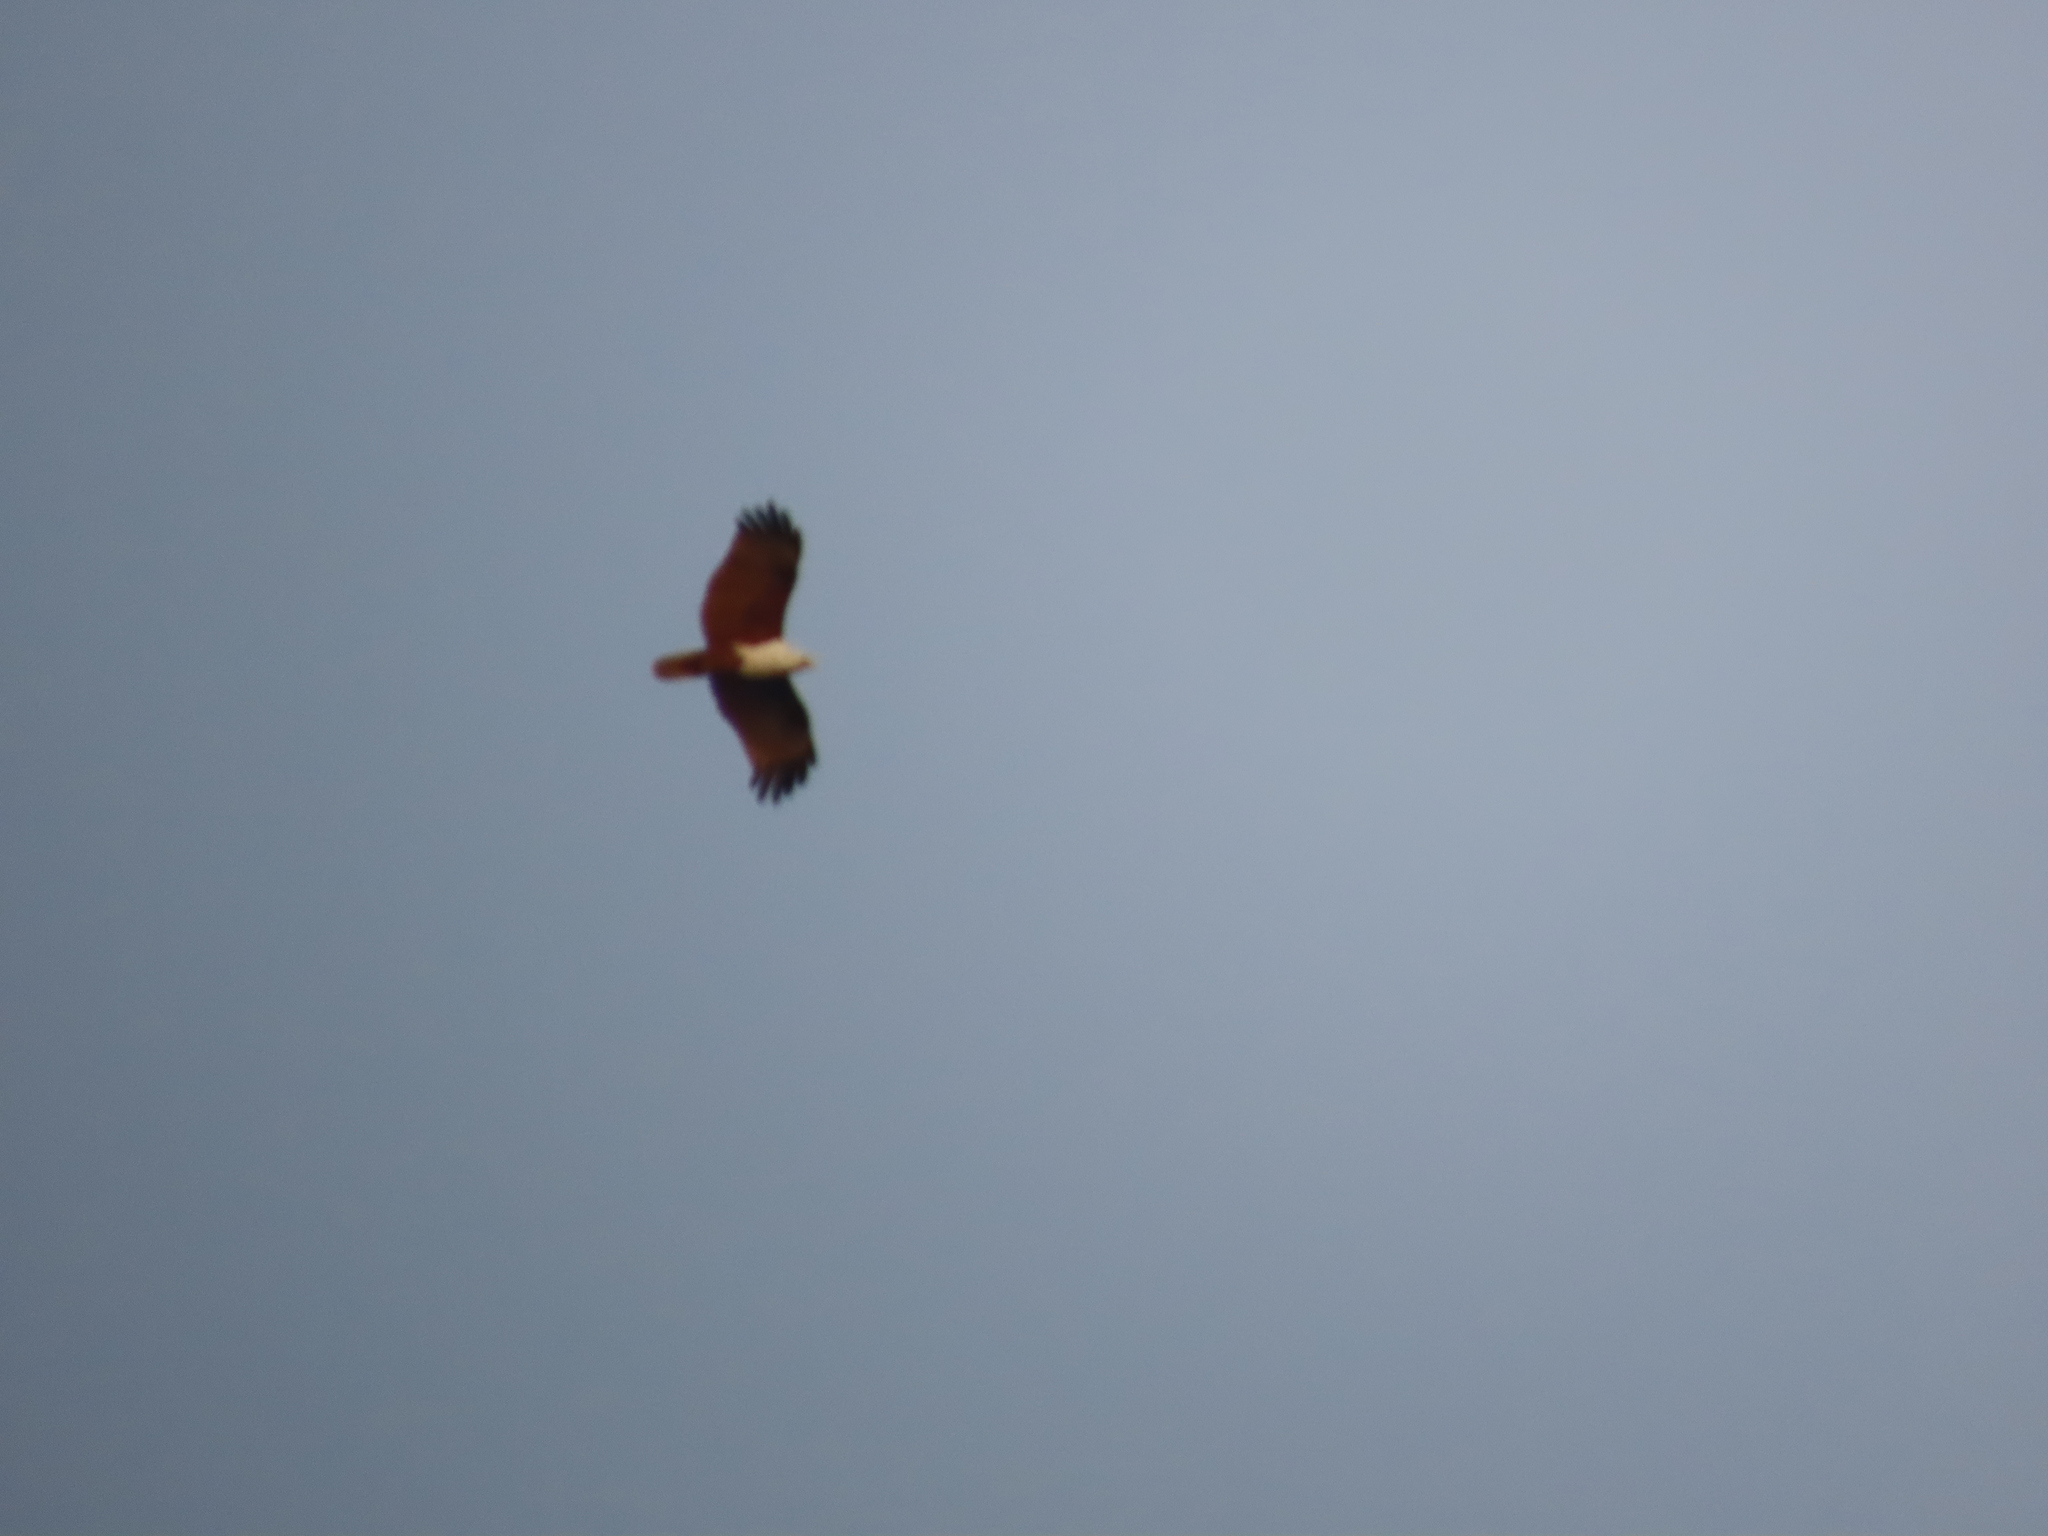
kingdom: Animalia
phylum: Chordata
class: Aves
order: Accipitriformes
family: Accipitridae
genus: Haliastur
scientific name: Haliastur indus
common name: Brahminy kite
